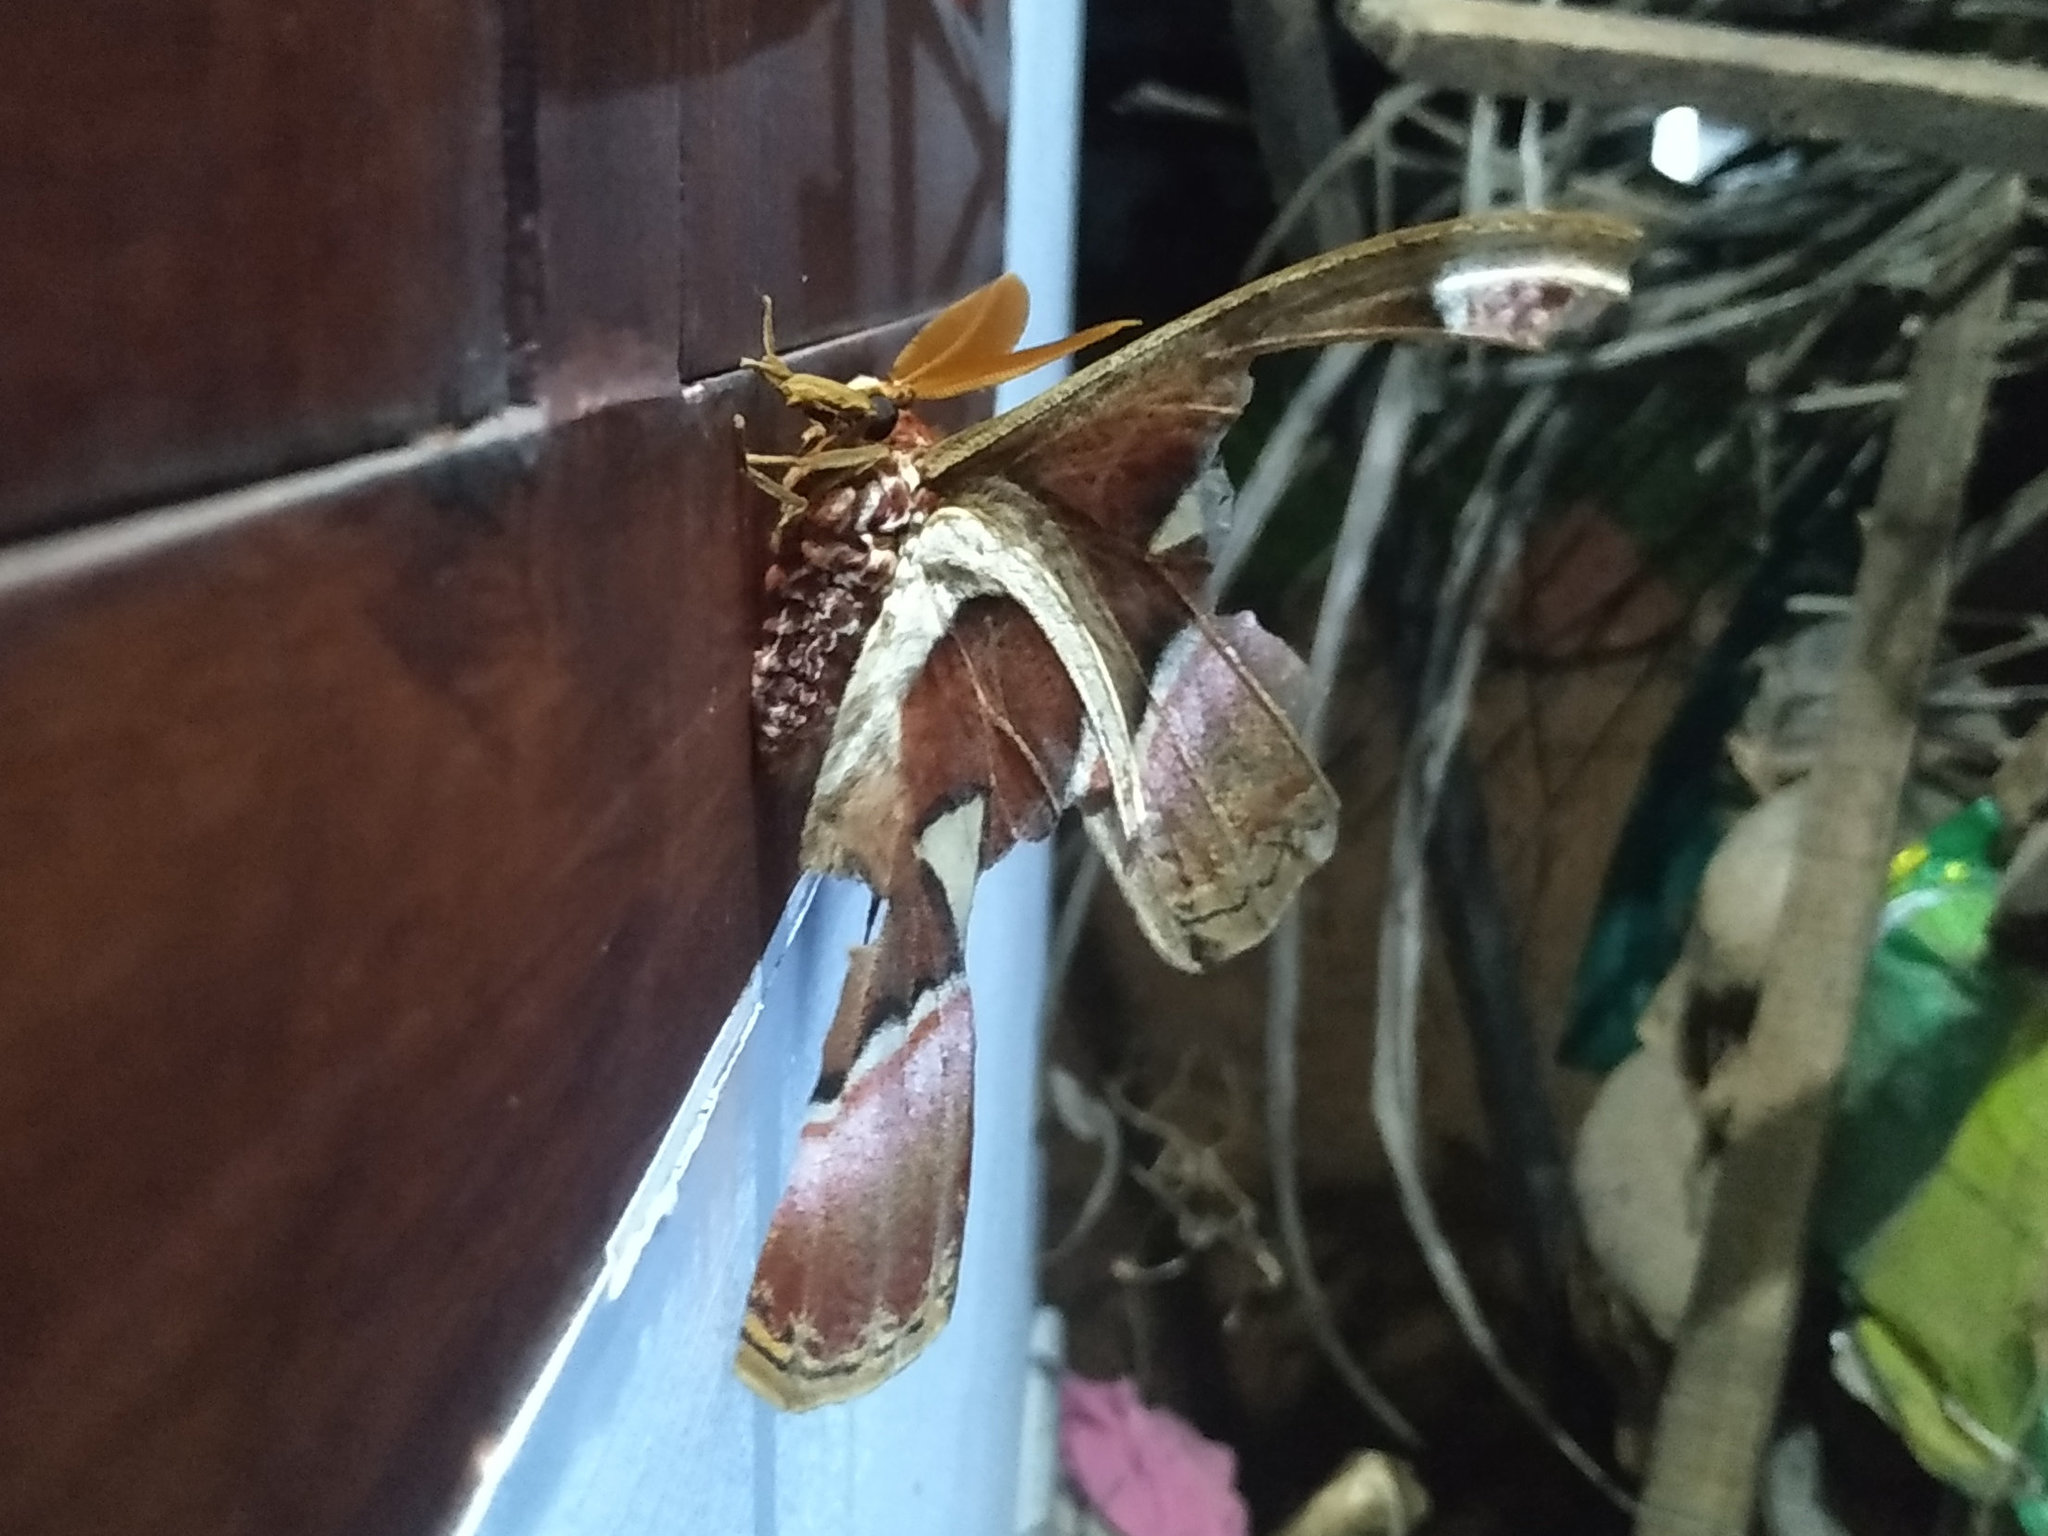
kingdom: Animalia
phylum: Arthropoda
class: Insecta
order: Lepidoptera
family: Saturniidae
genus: Attacus
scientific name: Attacus taprobanis
